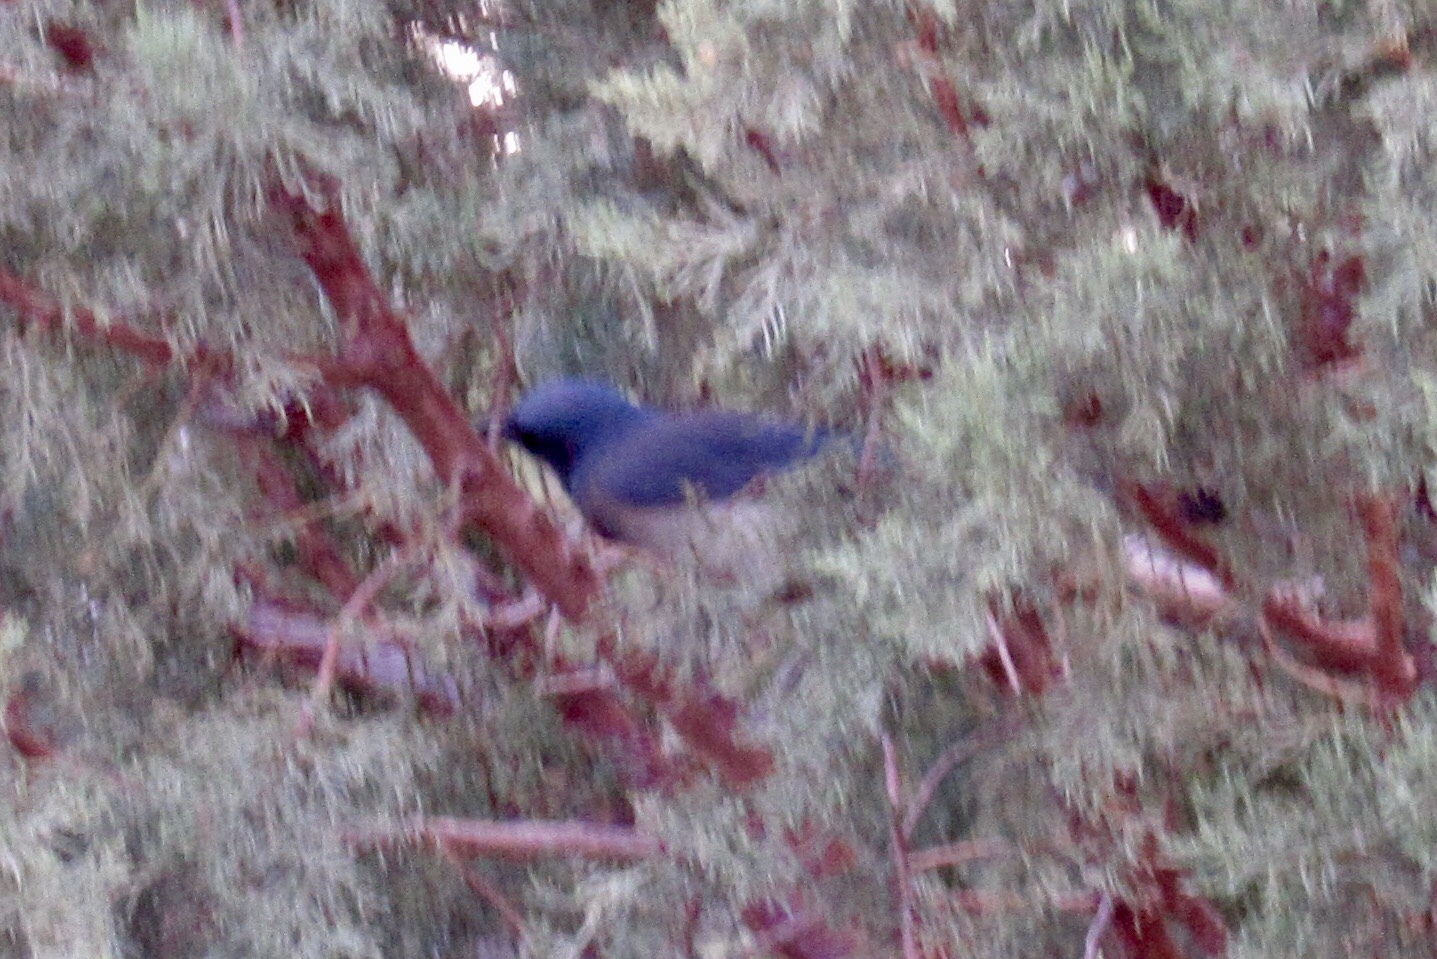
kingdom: Animalia
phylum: Chordata
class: Aves
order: Passeriformes
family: Corvidae
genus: Aphelocoma
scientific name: Aphelocoma wollweberi
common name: Mexican jay
